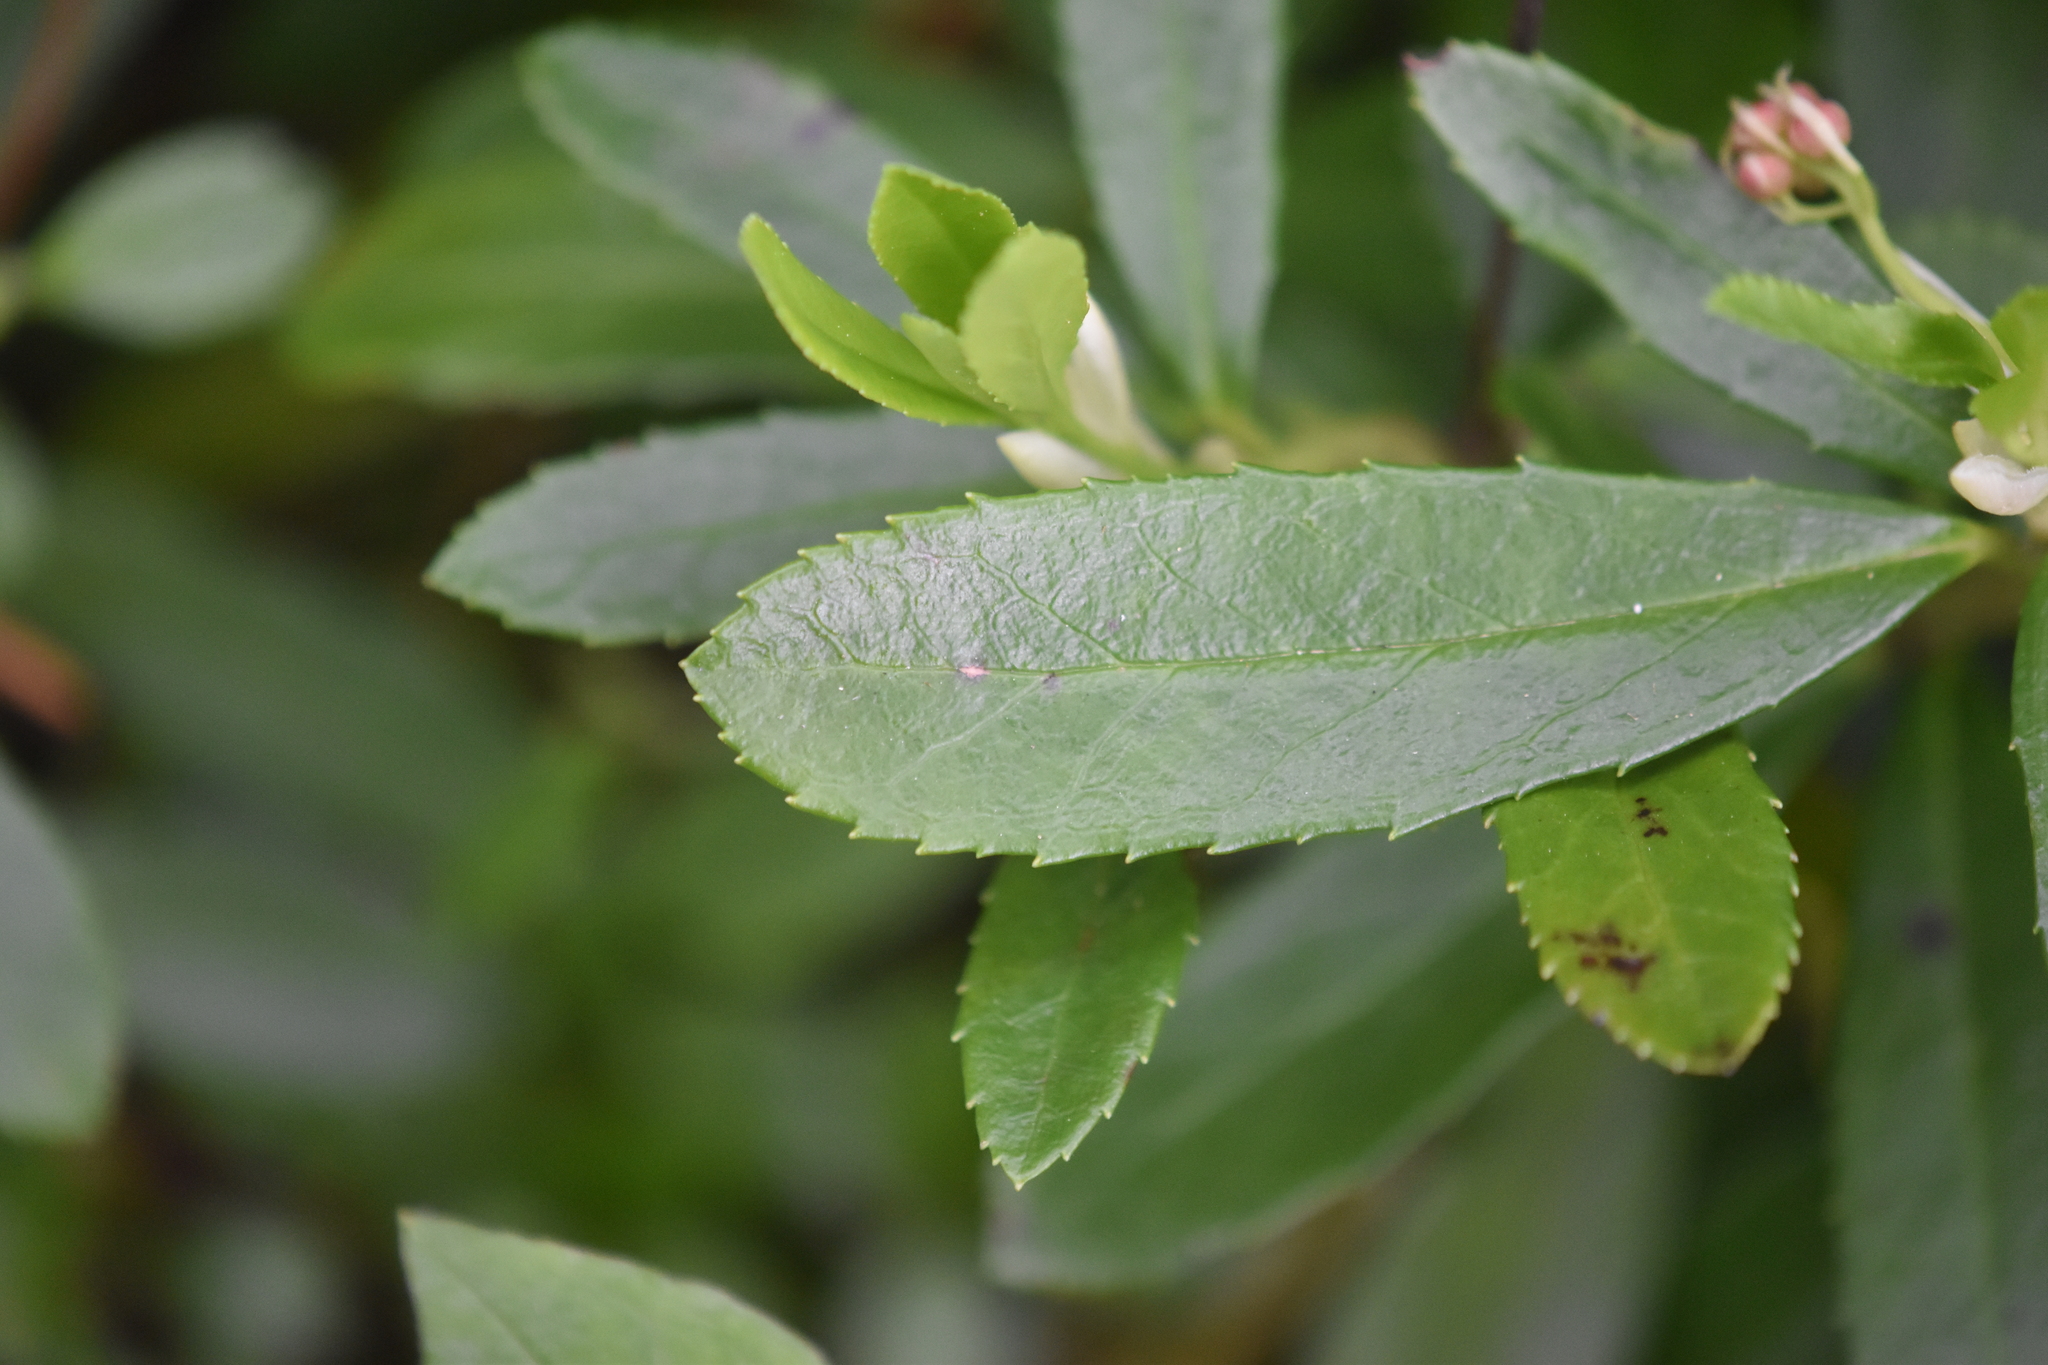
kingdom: Plantae
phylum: Tracheophyta
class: Magnoliopsida
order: Ericales
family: Ericaceae
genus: Chimaphila
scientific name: Chimaphila umbellata
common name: Pipsissewa
